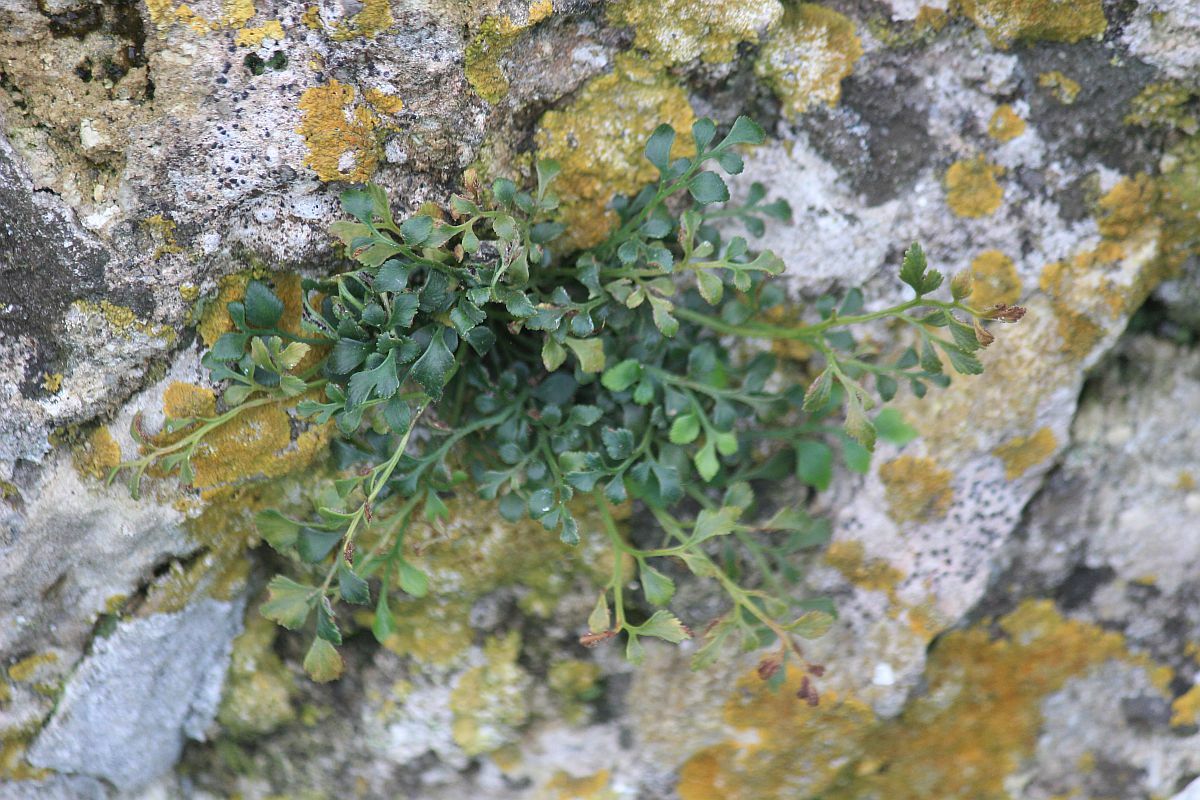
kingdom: Plantae
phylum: Tracheophyta
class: Polypodiopsida
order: Polypodiales
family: Aspleniaceae
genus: Asplenium
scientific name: Asplenium ruta-muraria
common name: Wall-rue
